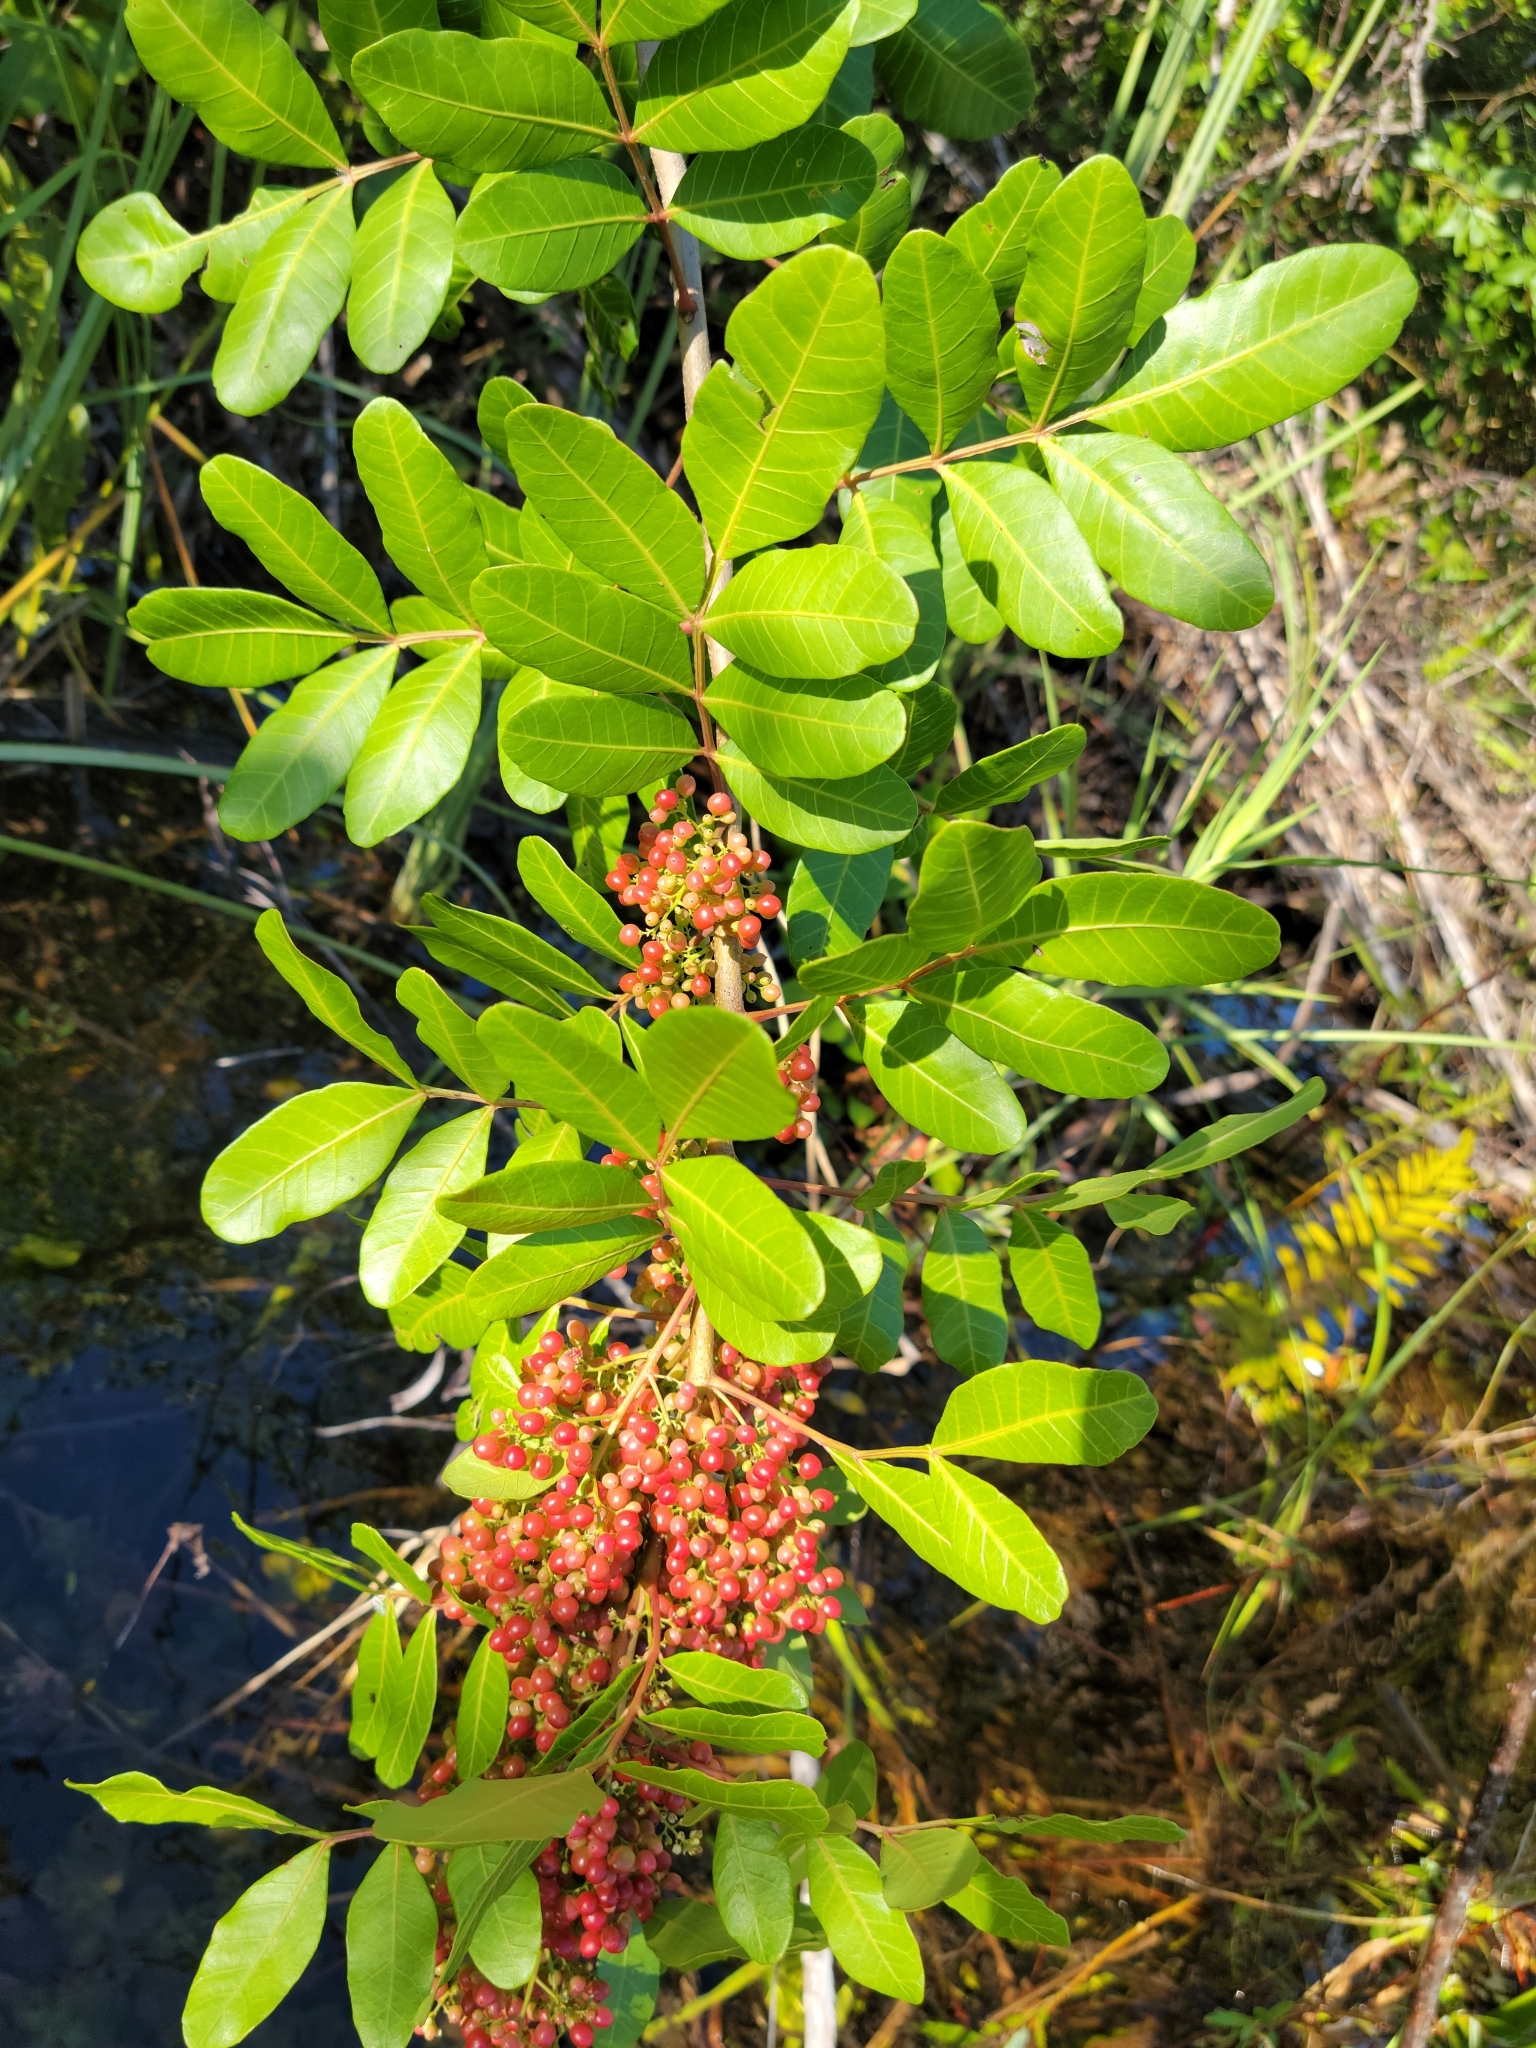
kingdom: Plantae
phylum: Tracheophyta
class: Magnoliopsida
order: Sapindales
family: Anacardiaceae
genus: Schinus
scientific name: Schinus terebinthifolia
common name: Brazilian peppertree
